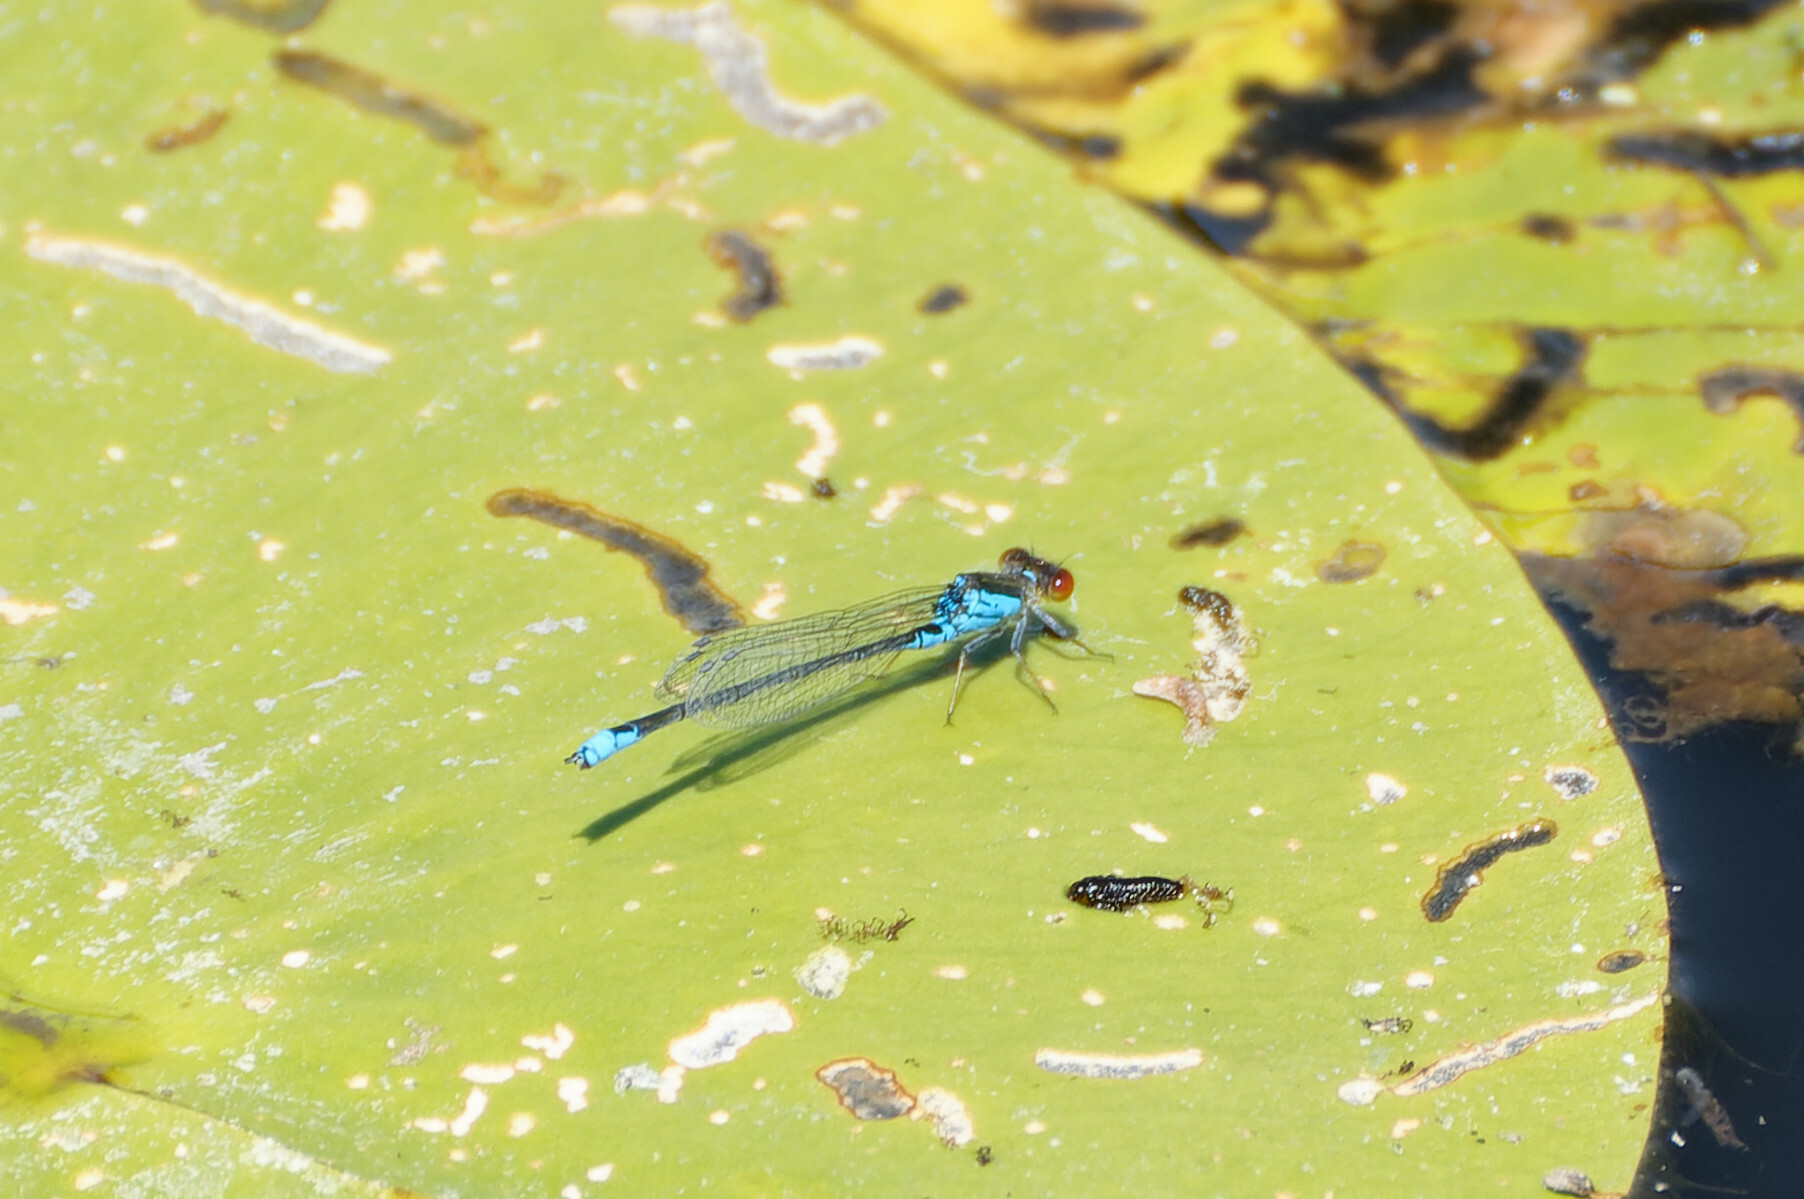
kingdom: Animalia
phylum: Arthropoda
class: Insecta
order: Odonata
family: Coenagrionidae
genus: Erythromma
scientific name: Erythromma viridulum
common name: Small red-eyed damselfly
